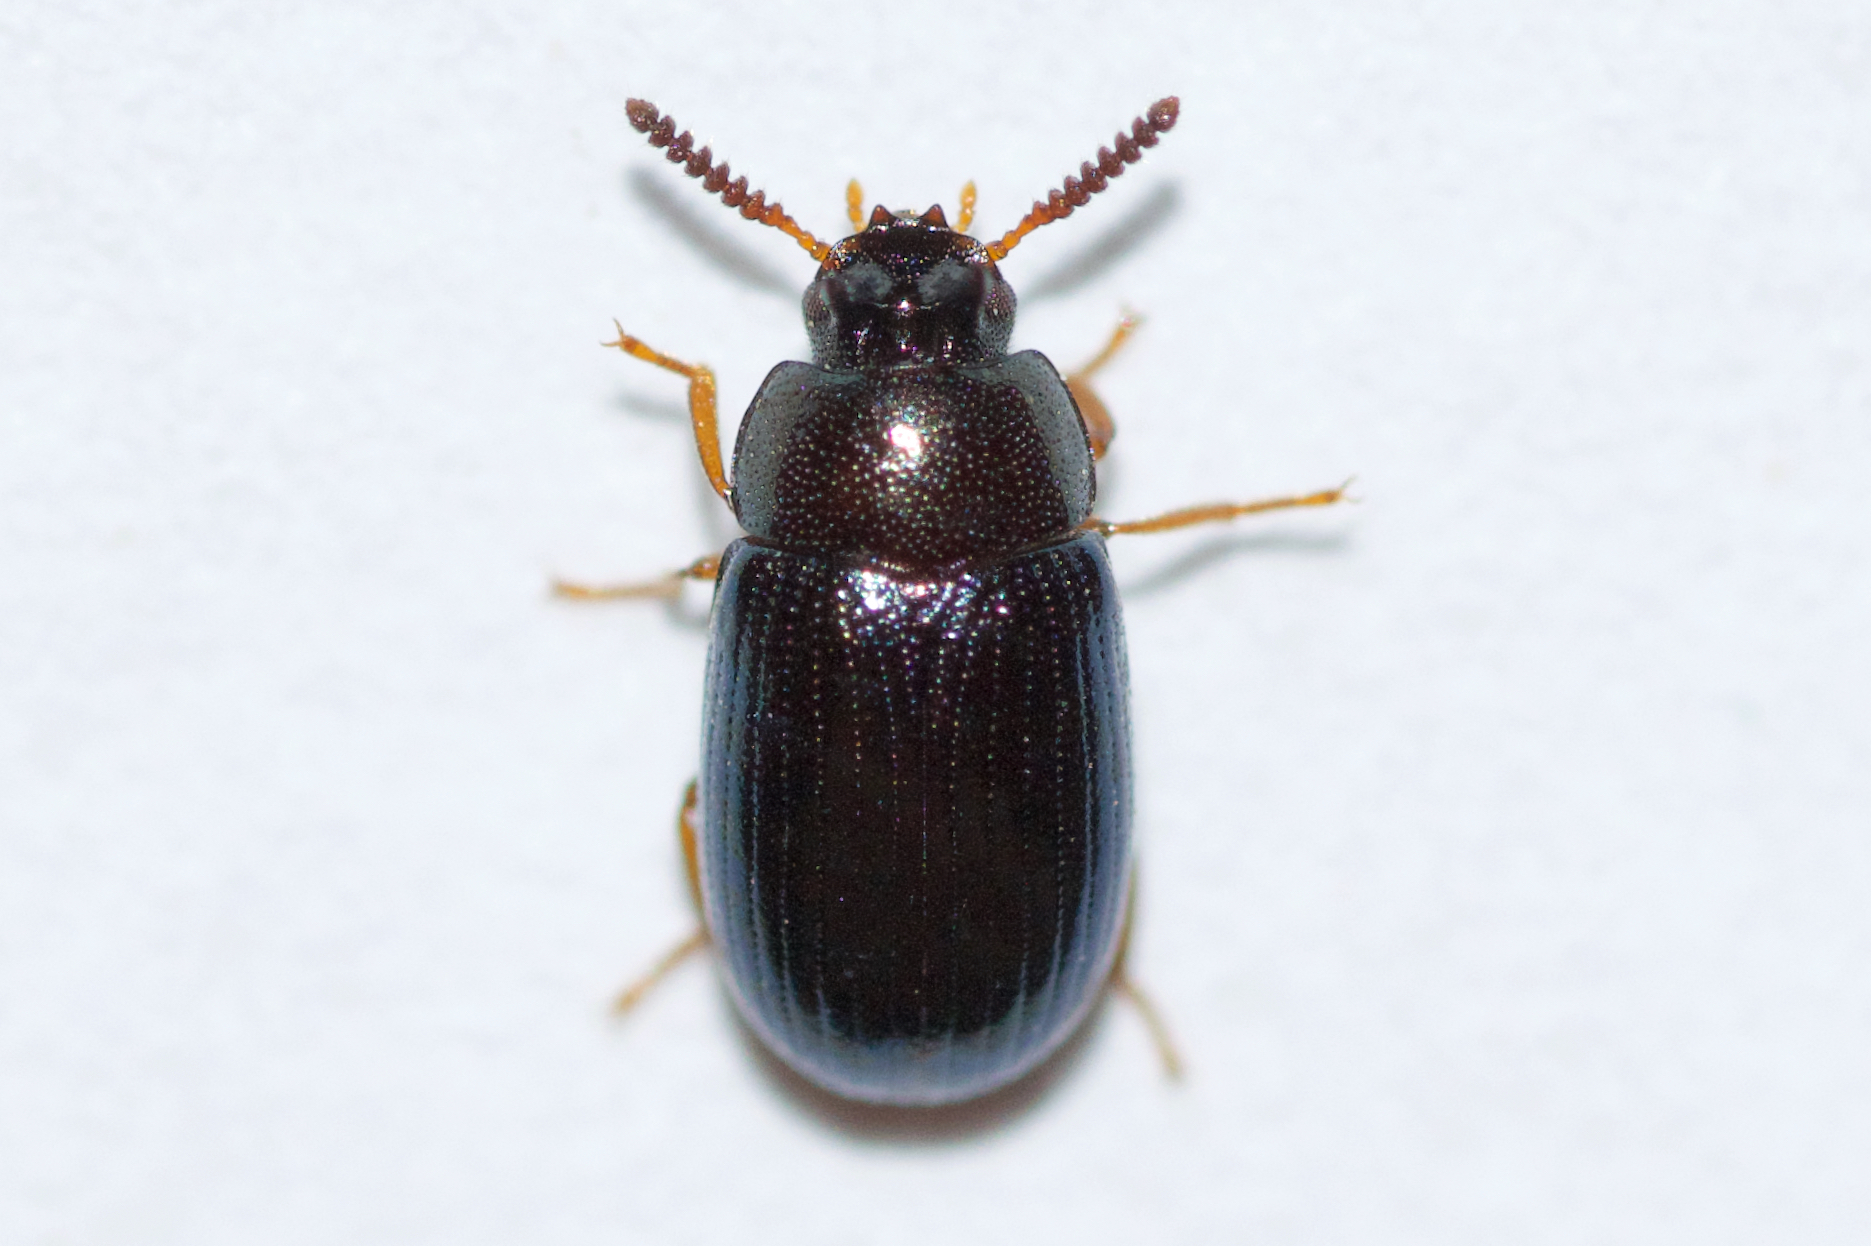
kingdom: Animalia
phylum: Arthropoda
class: Insecta
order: Coleoptera
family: Tenebrionidae
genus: Neomida
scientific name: Neomida bicornis
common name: Two-horned darkling beetle
